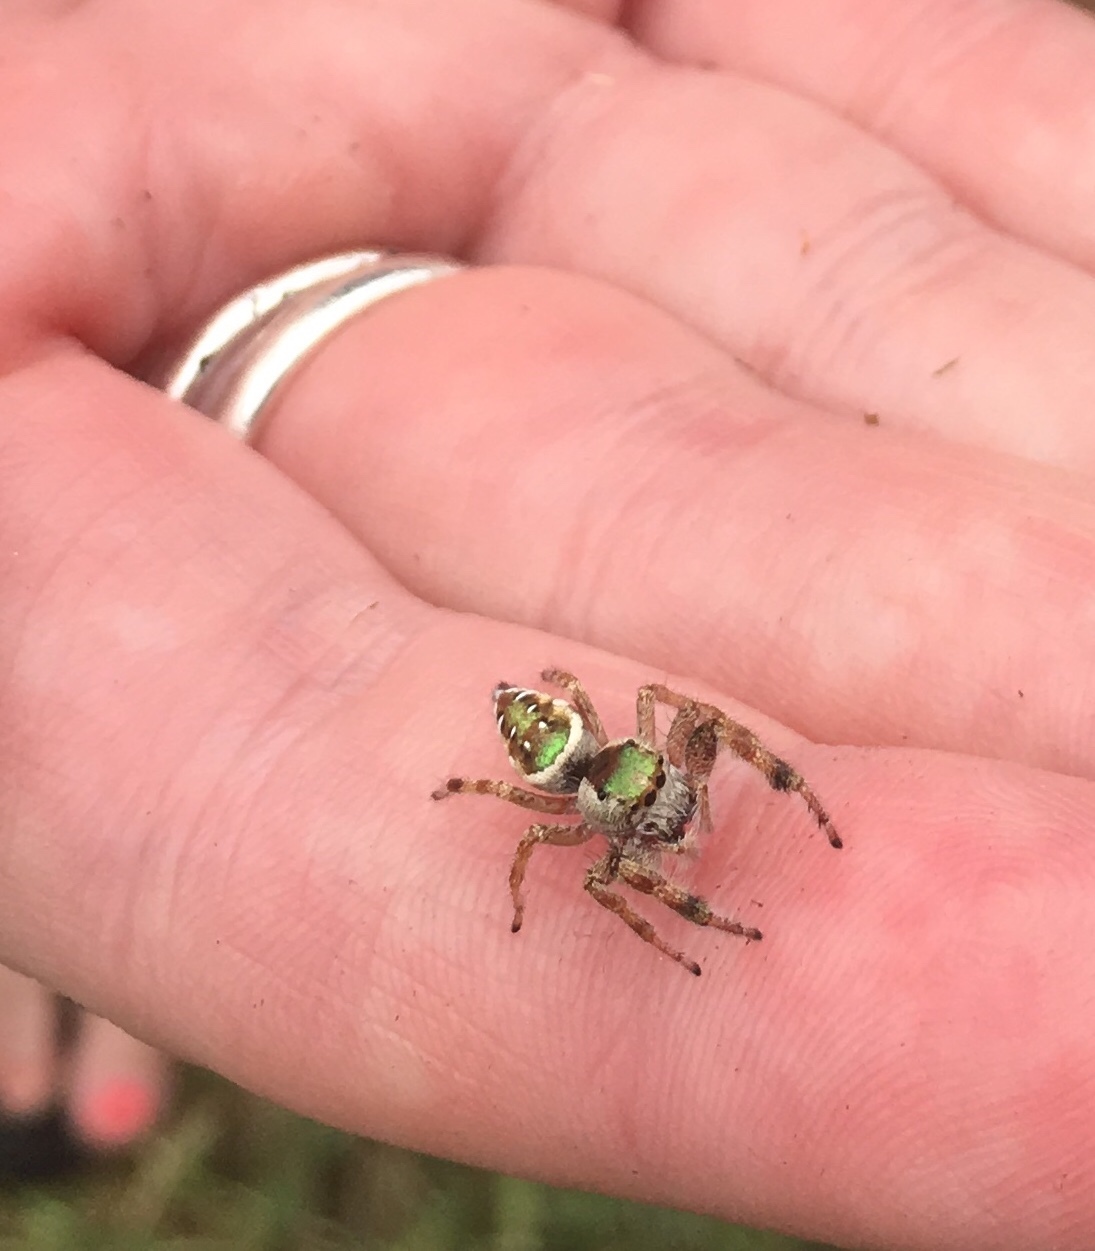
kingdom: Animalia
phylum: Arthropoda
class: Arachnida
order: Araneae
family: Salticidae
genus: Paraphidippus
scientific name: Paraphidippus aurantius
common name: Jumping spiders
